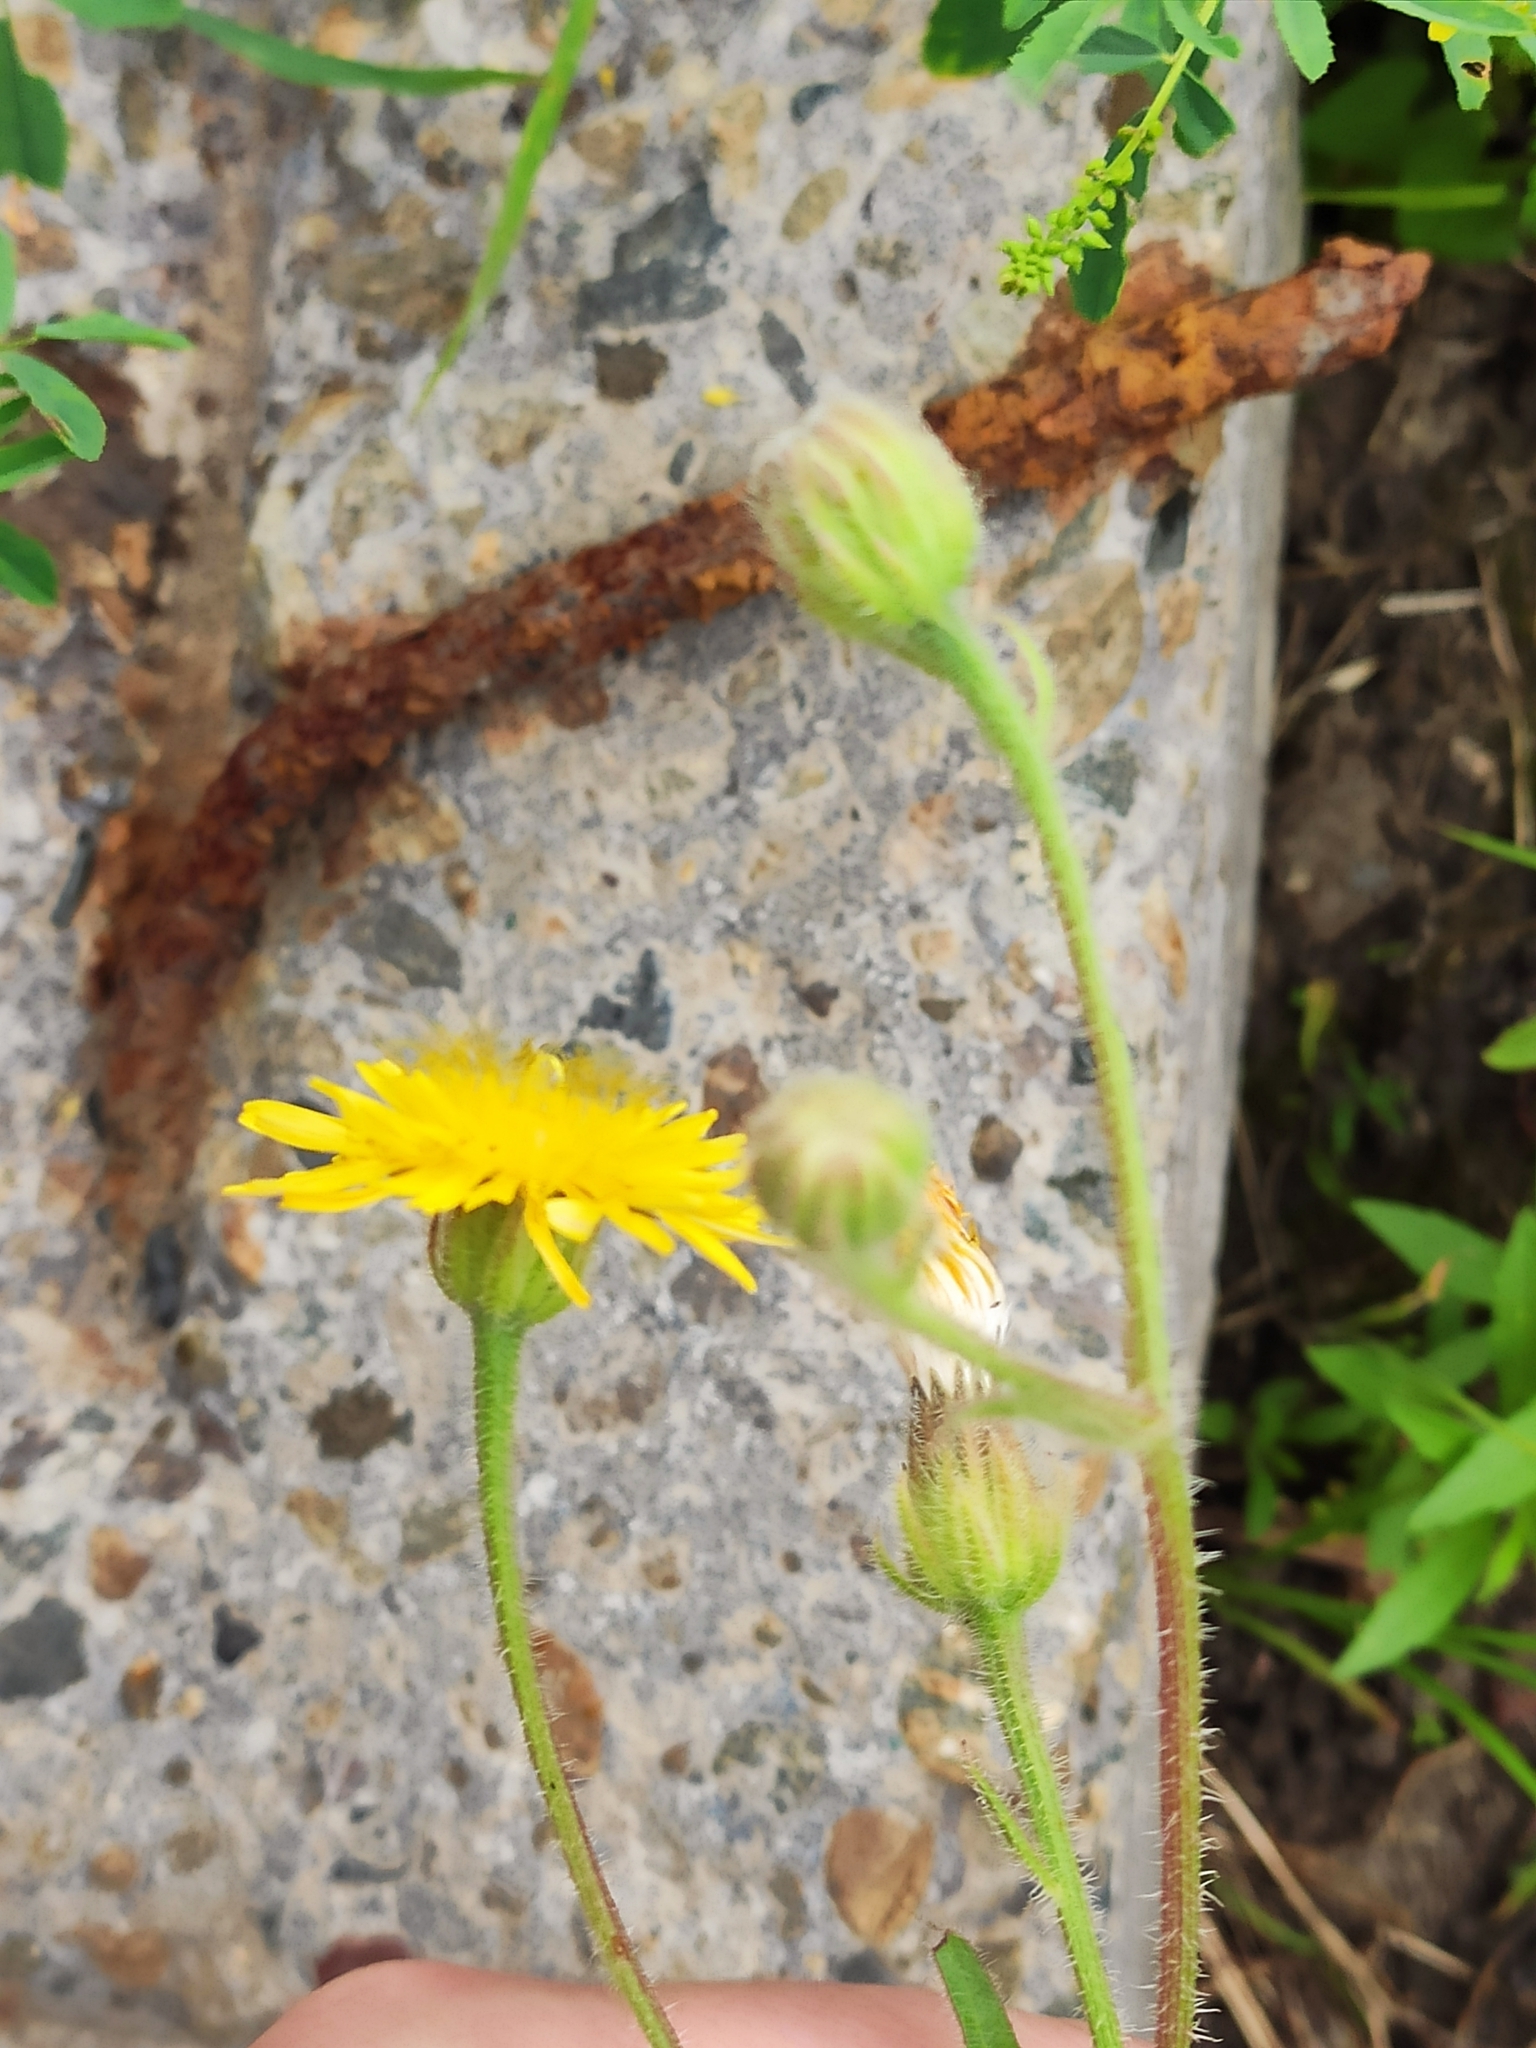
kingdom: Plantae
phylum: Tracheophyta
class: Magnoliopsida
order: Asterales
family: Asteraceae
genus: Crepis
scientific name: Crepis foetida
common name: Stinking hawk's-beard
